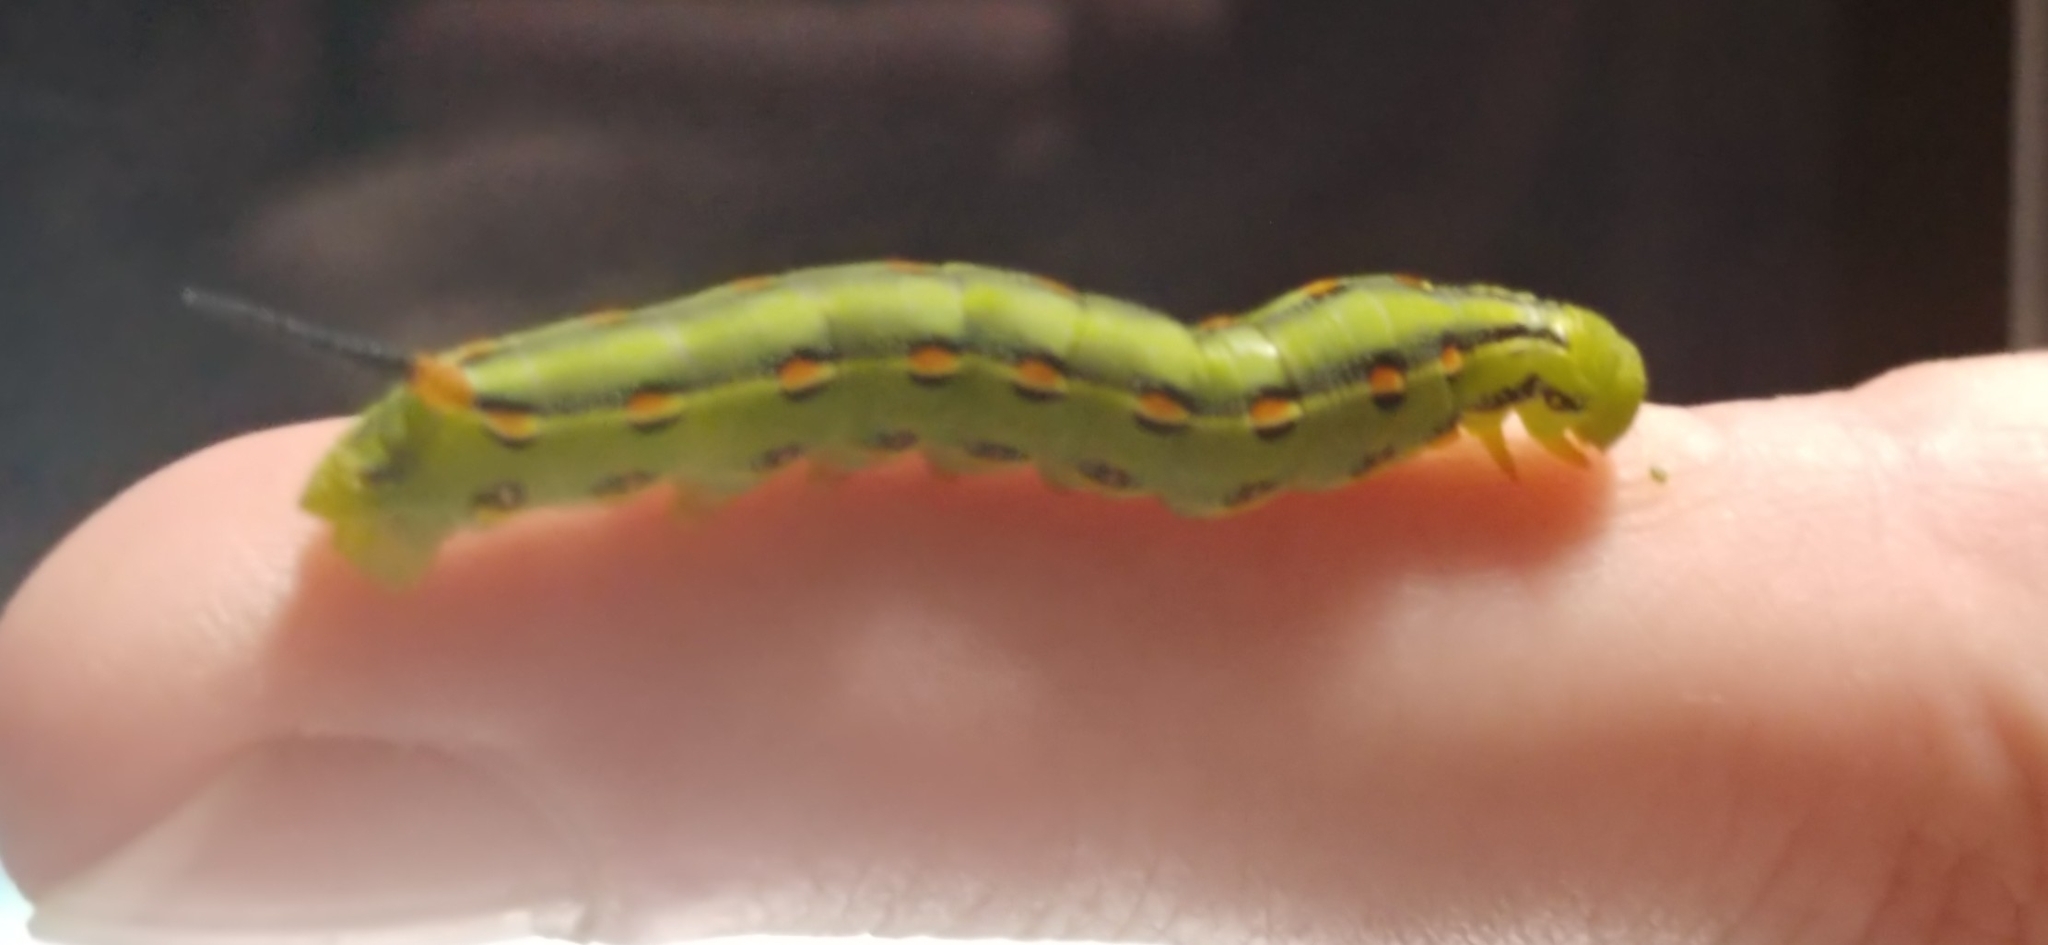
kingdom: Animalia
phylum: Arthropoda
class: Insecta
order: Lepidoptera
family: Sphingidae
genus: Hyles
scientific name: Hyles lineata
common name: White-lined sphinx
